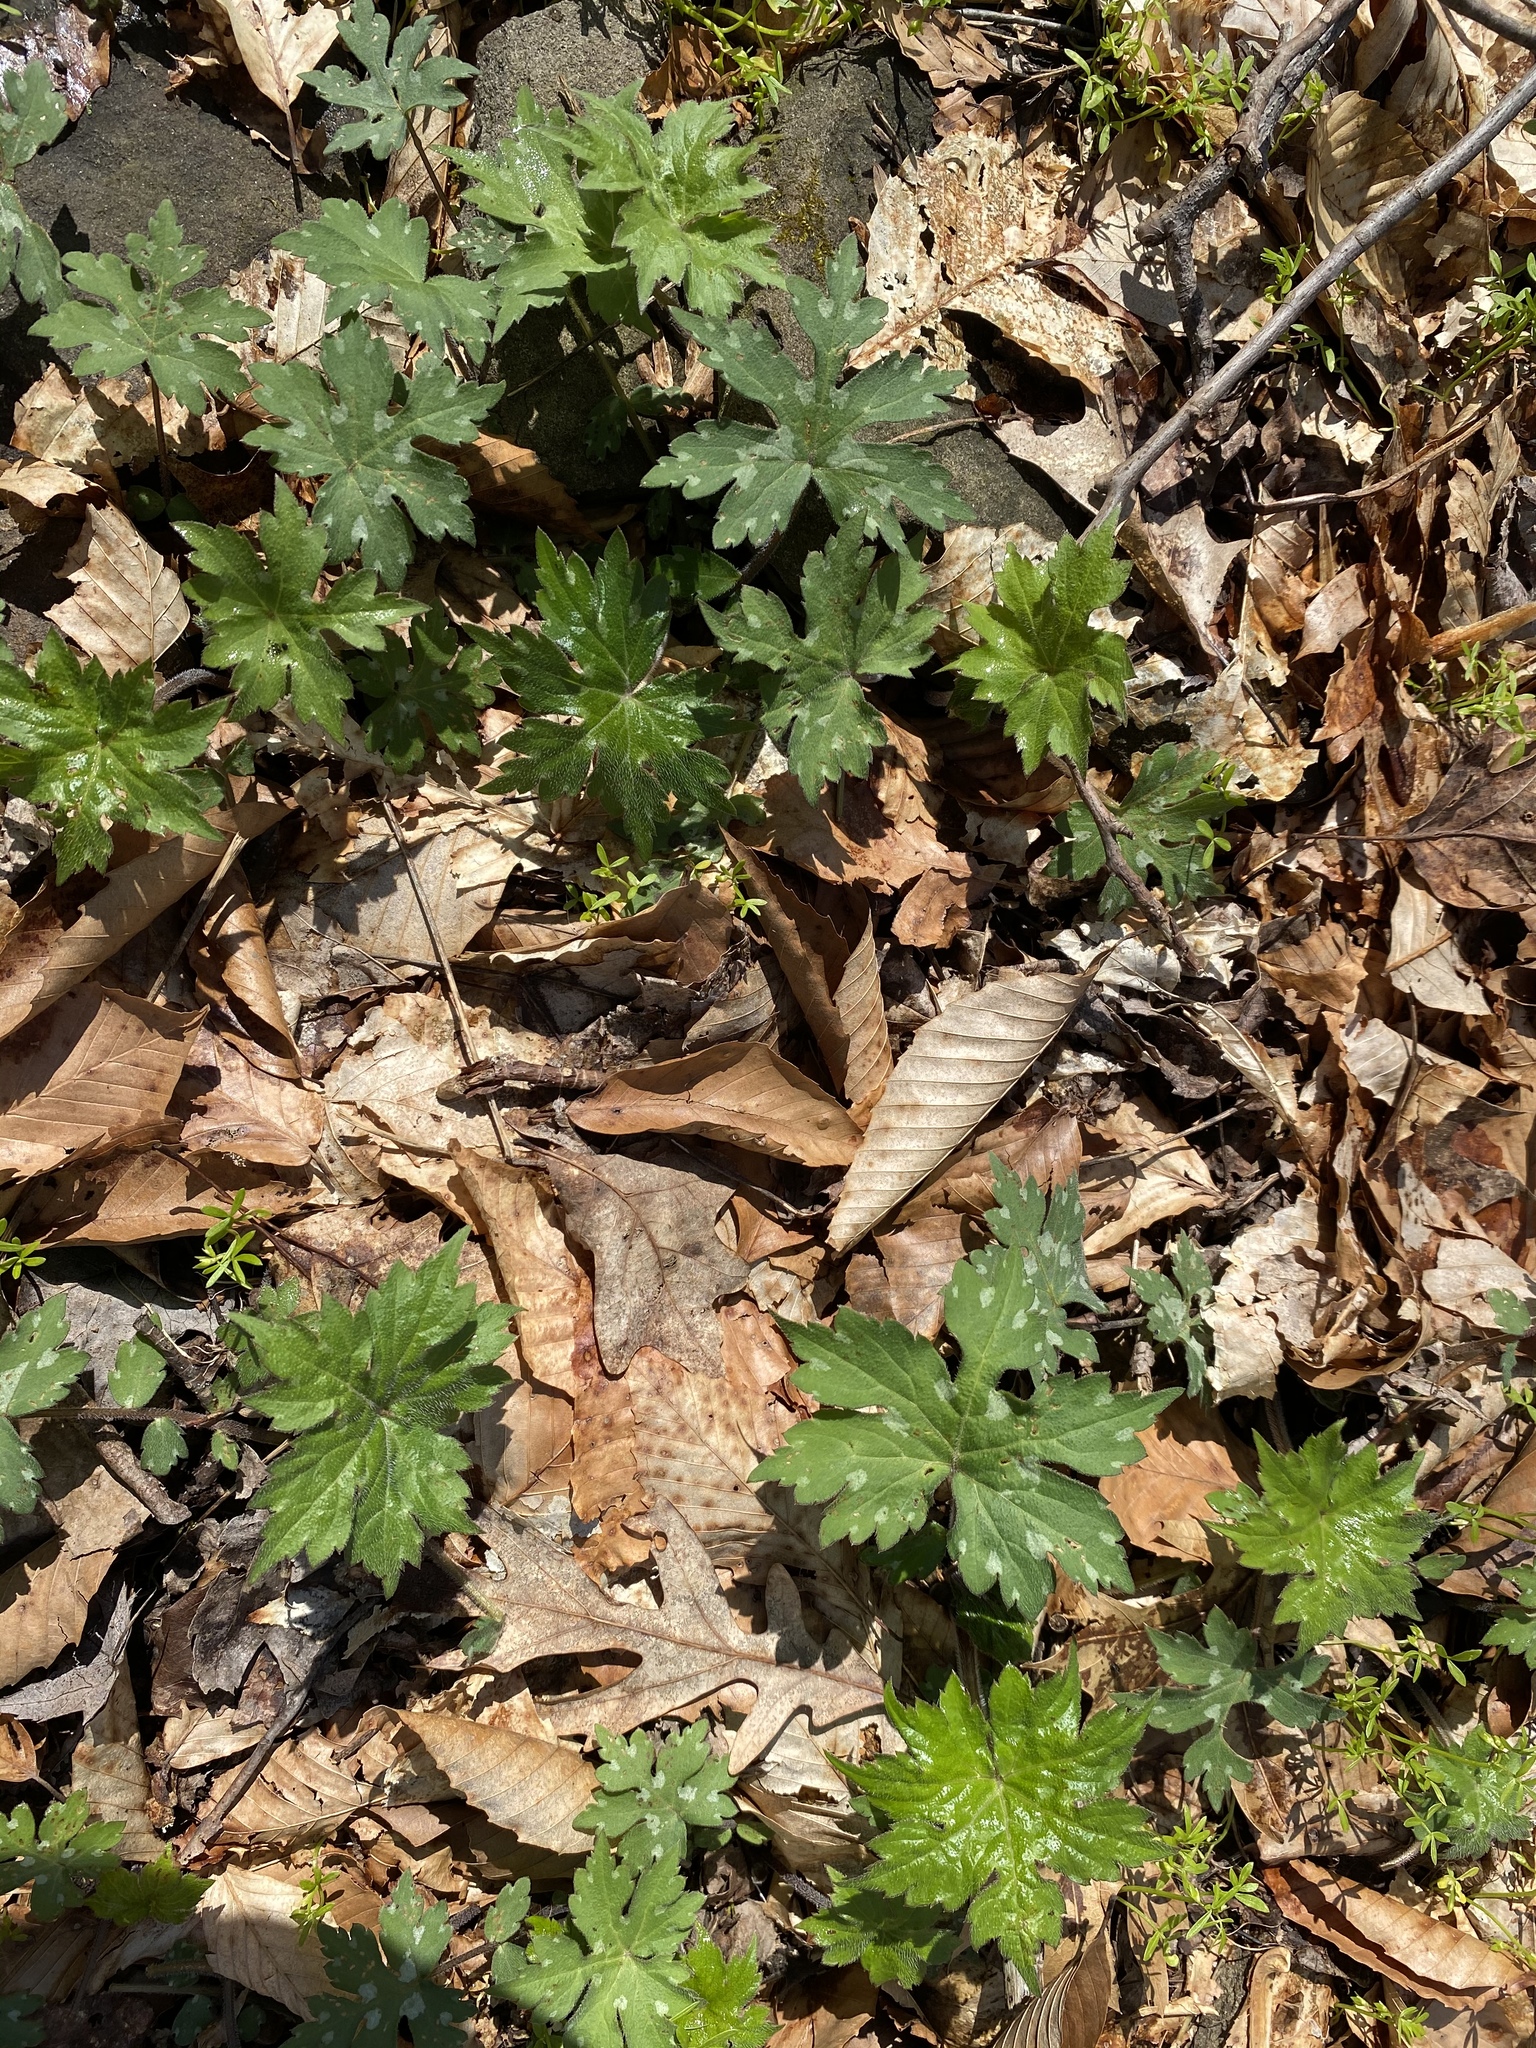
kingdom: Plantae
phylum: Tracheophyta
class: Magnoliopsida
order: Boraginales
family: Hydrophyllaceae
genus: Hydrophyllum
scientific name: Hydrophyllum canadense
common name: Canada waterleaf
